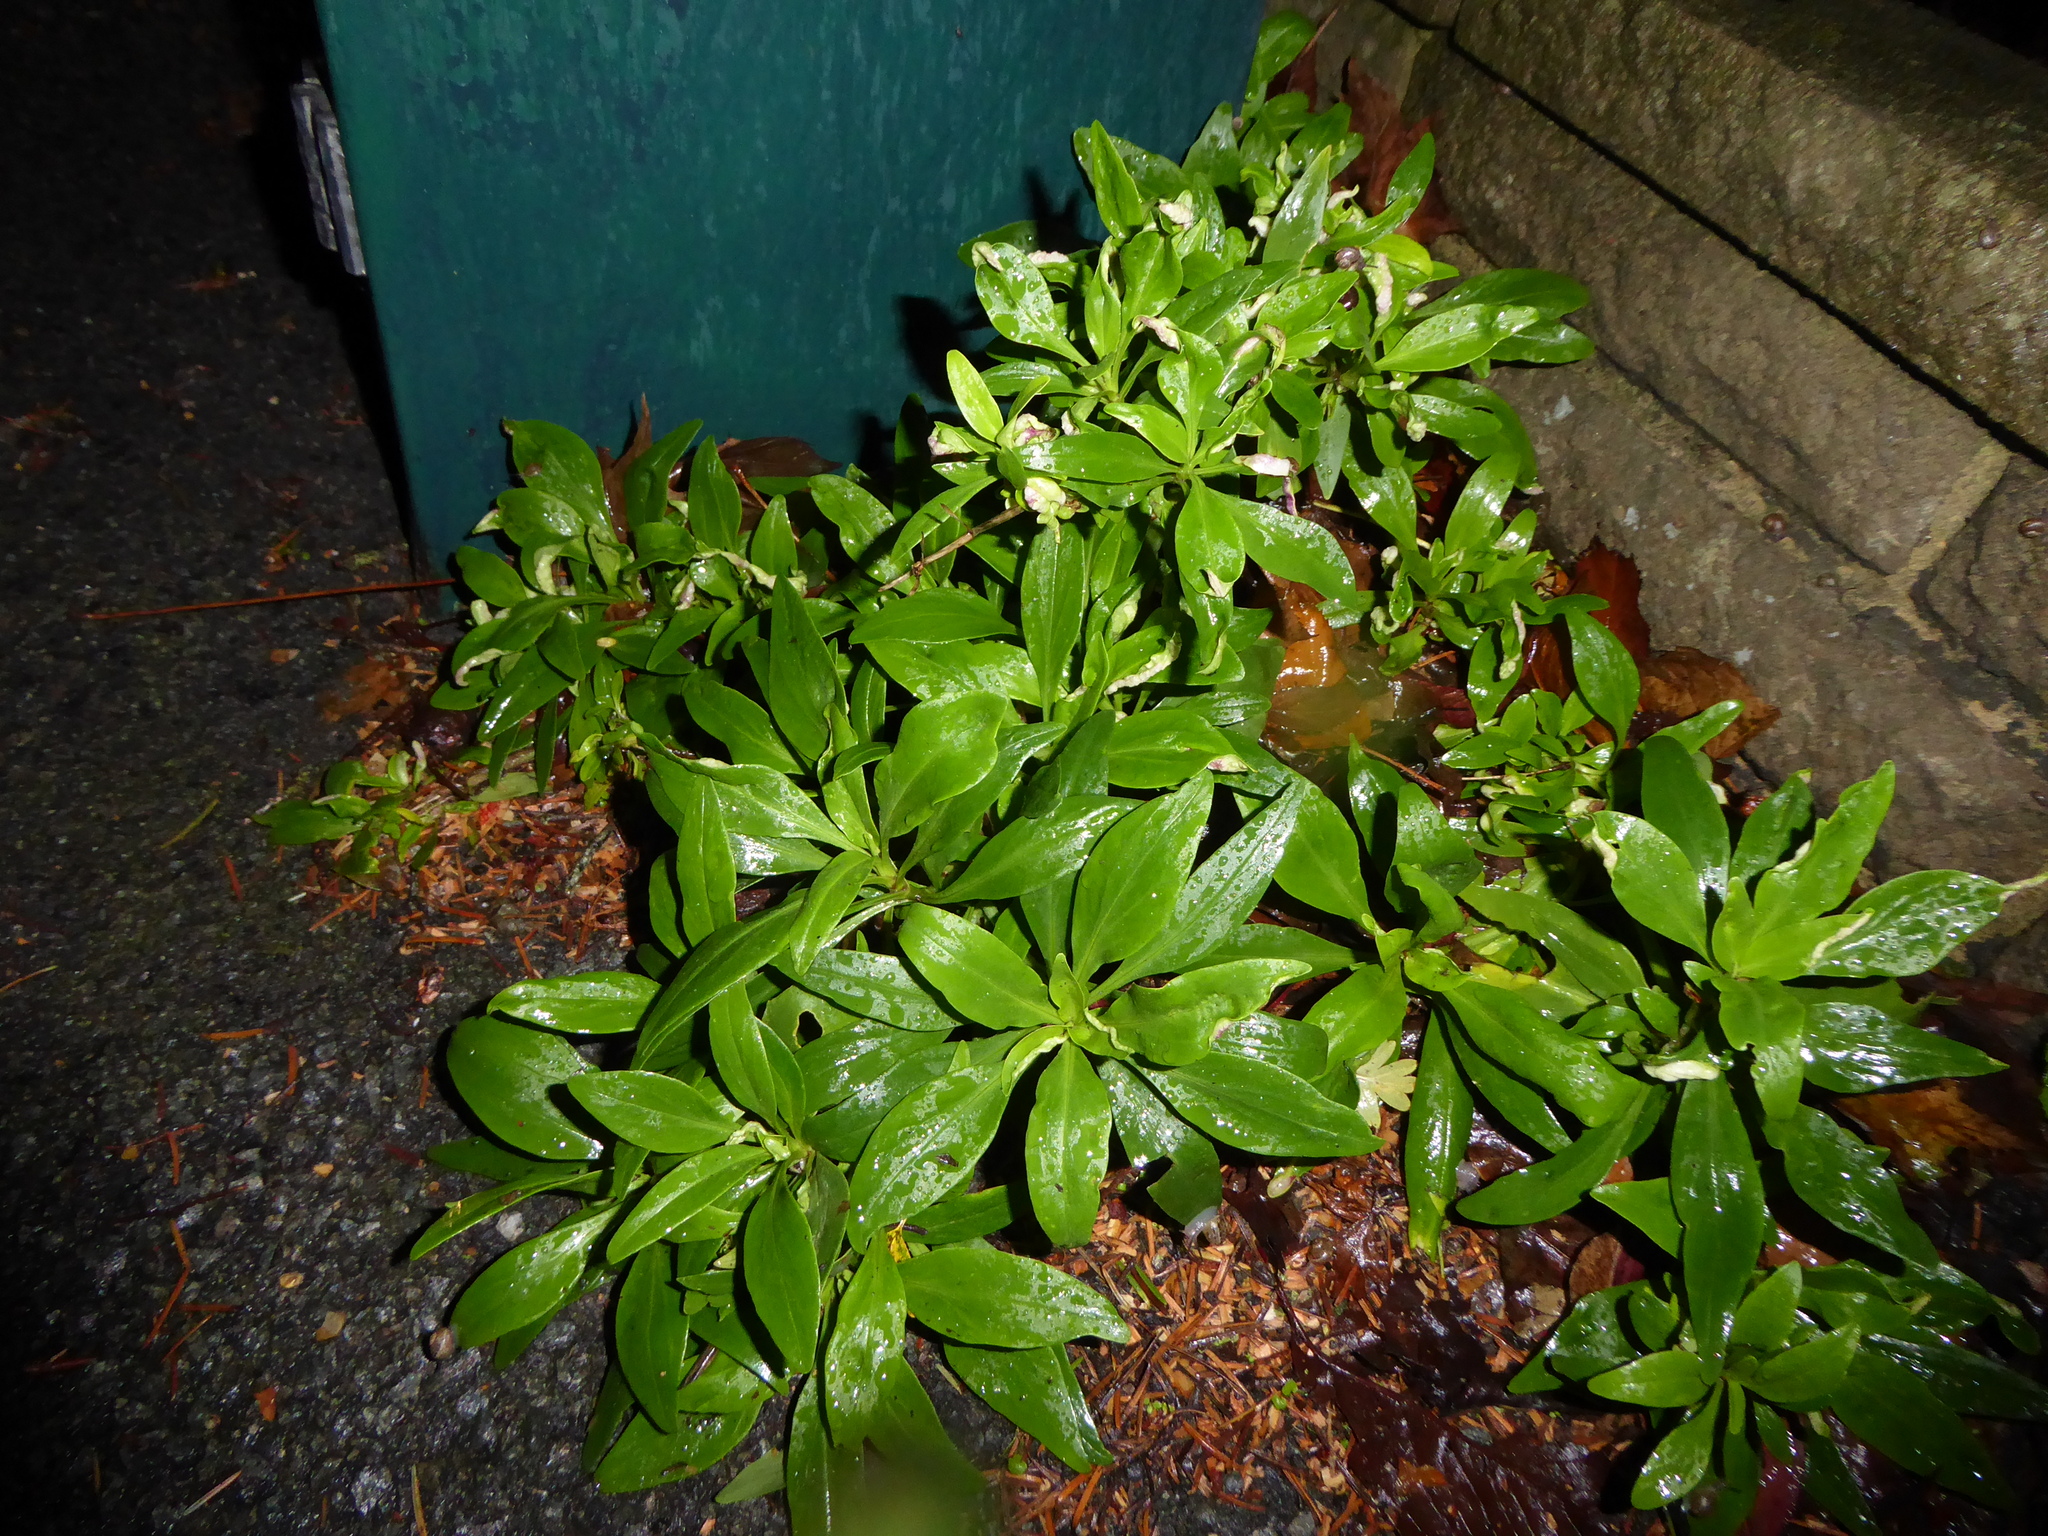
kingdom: Plantae
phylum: Tracheophyta
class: Magnoliopsida
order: Dipsacales
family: Caprifoliaceae
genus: Centranthus
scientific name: Centranthus ruber
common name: Red valerian
